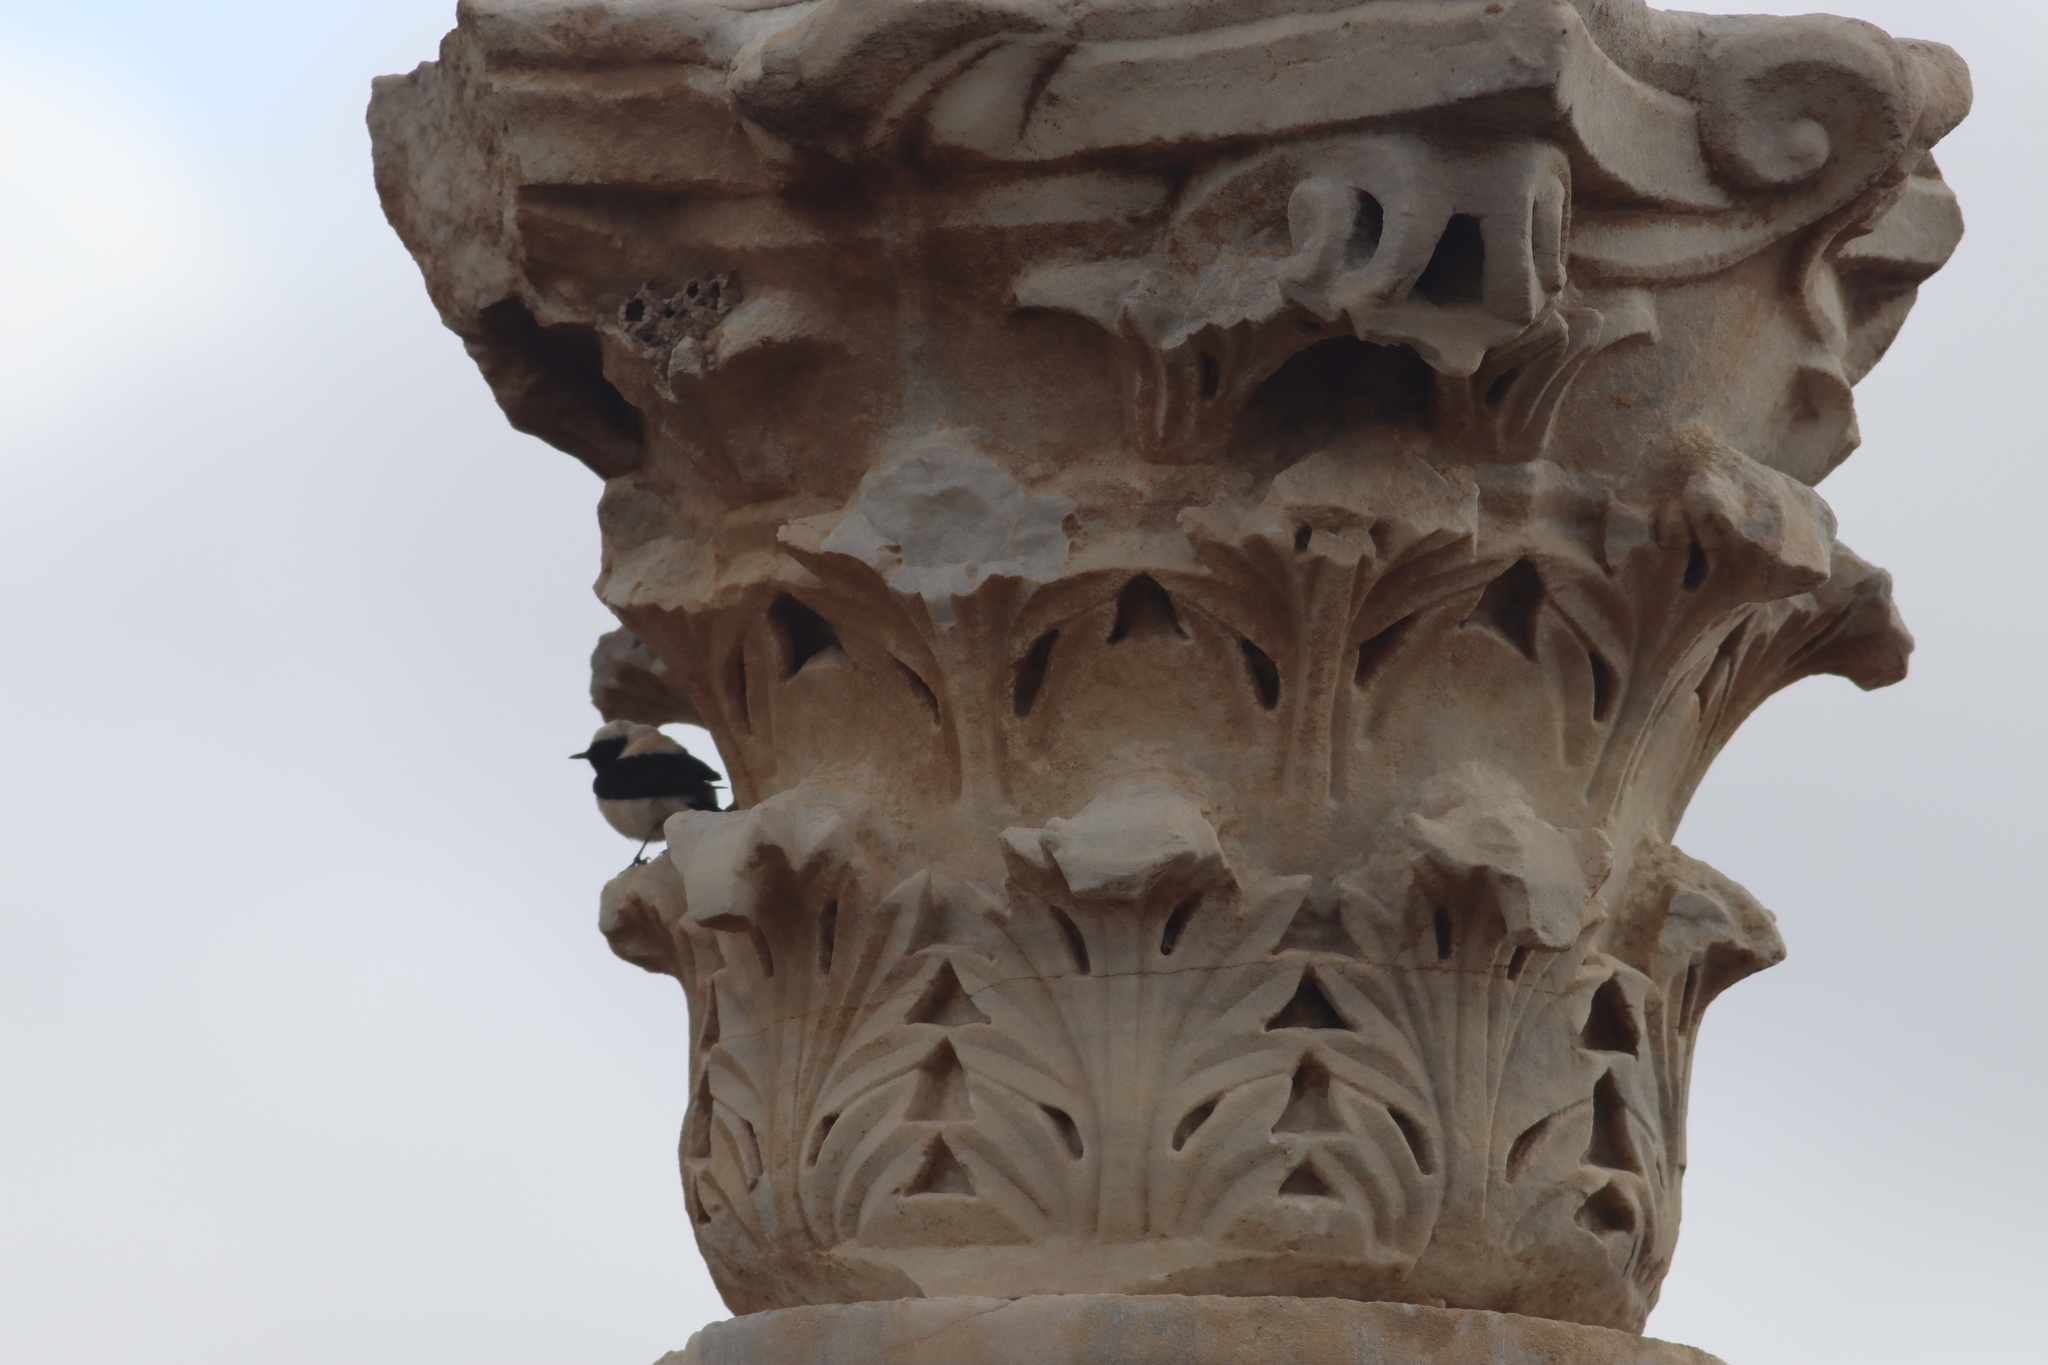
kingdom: Animalia
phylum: Chordata
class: Aves
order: Passeriformes
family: Muscicapidae
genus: Oenanthe
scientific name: Oenanthe hispanica
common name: Black-eared wheatear
